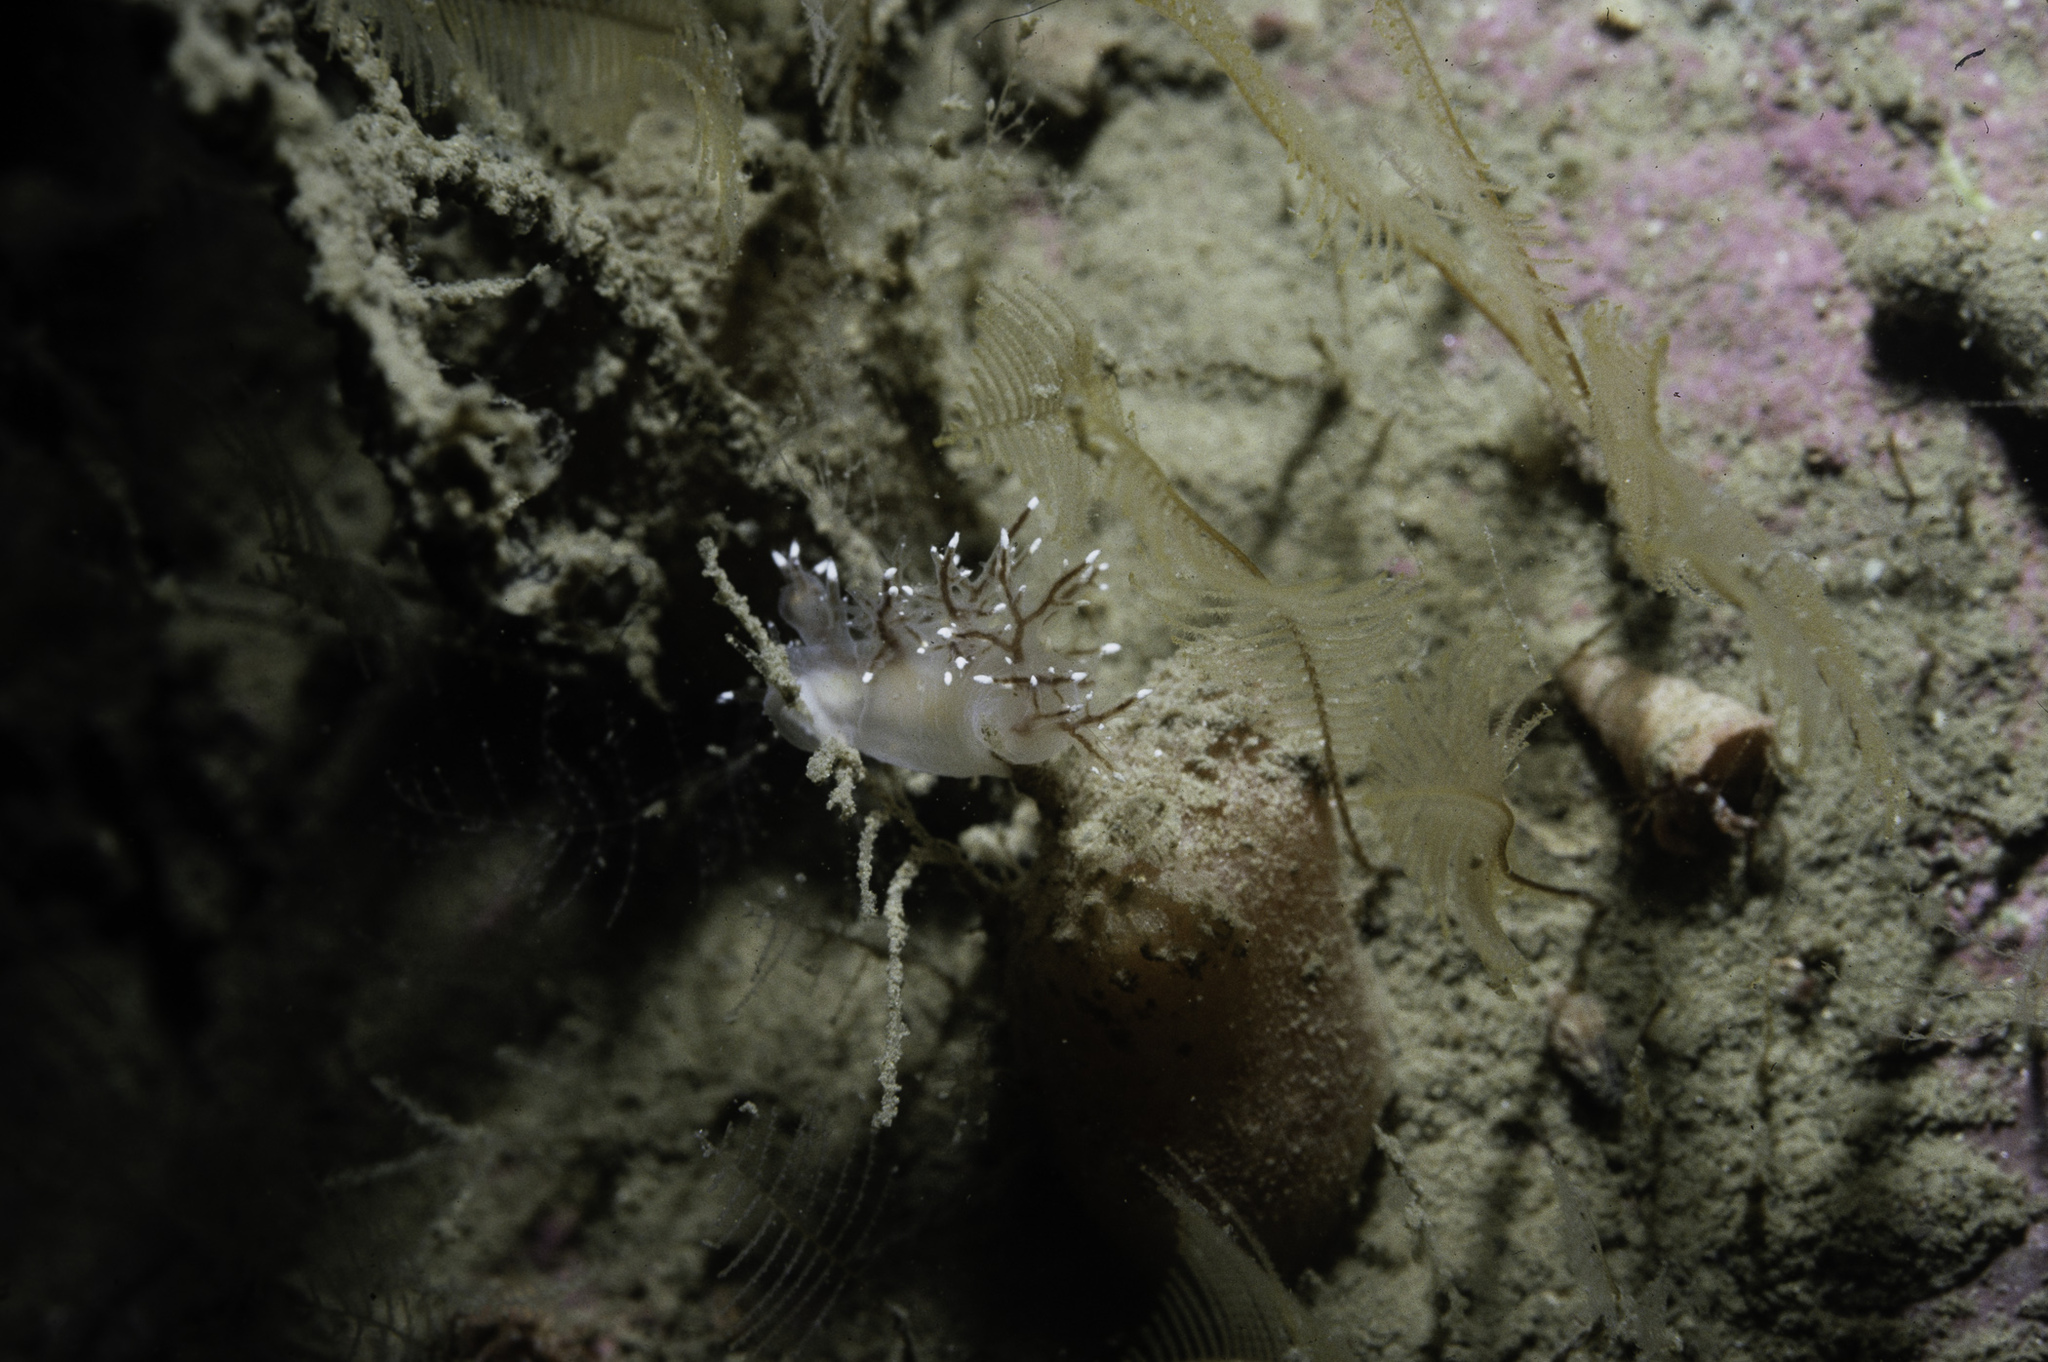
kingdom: Animalia
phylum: Mollusca
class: Gastropoda
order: Nudibranchia
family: Dendronotidae
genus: Dendronotus
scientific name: Dendronotus keatleyae
